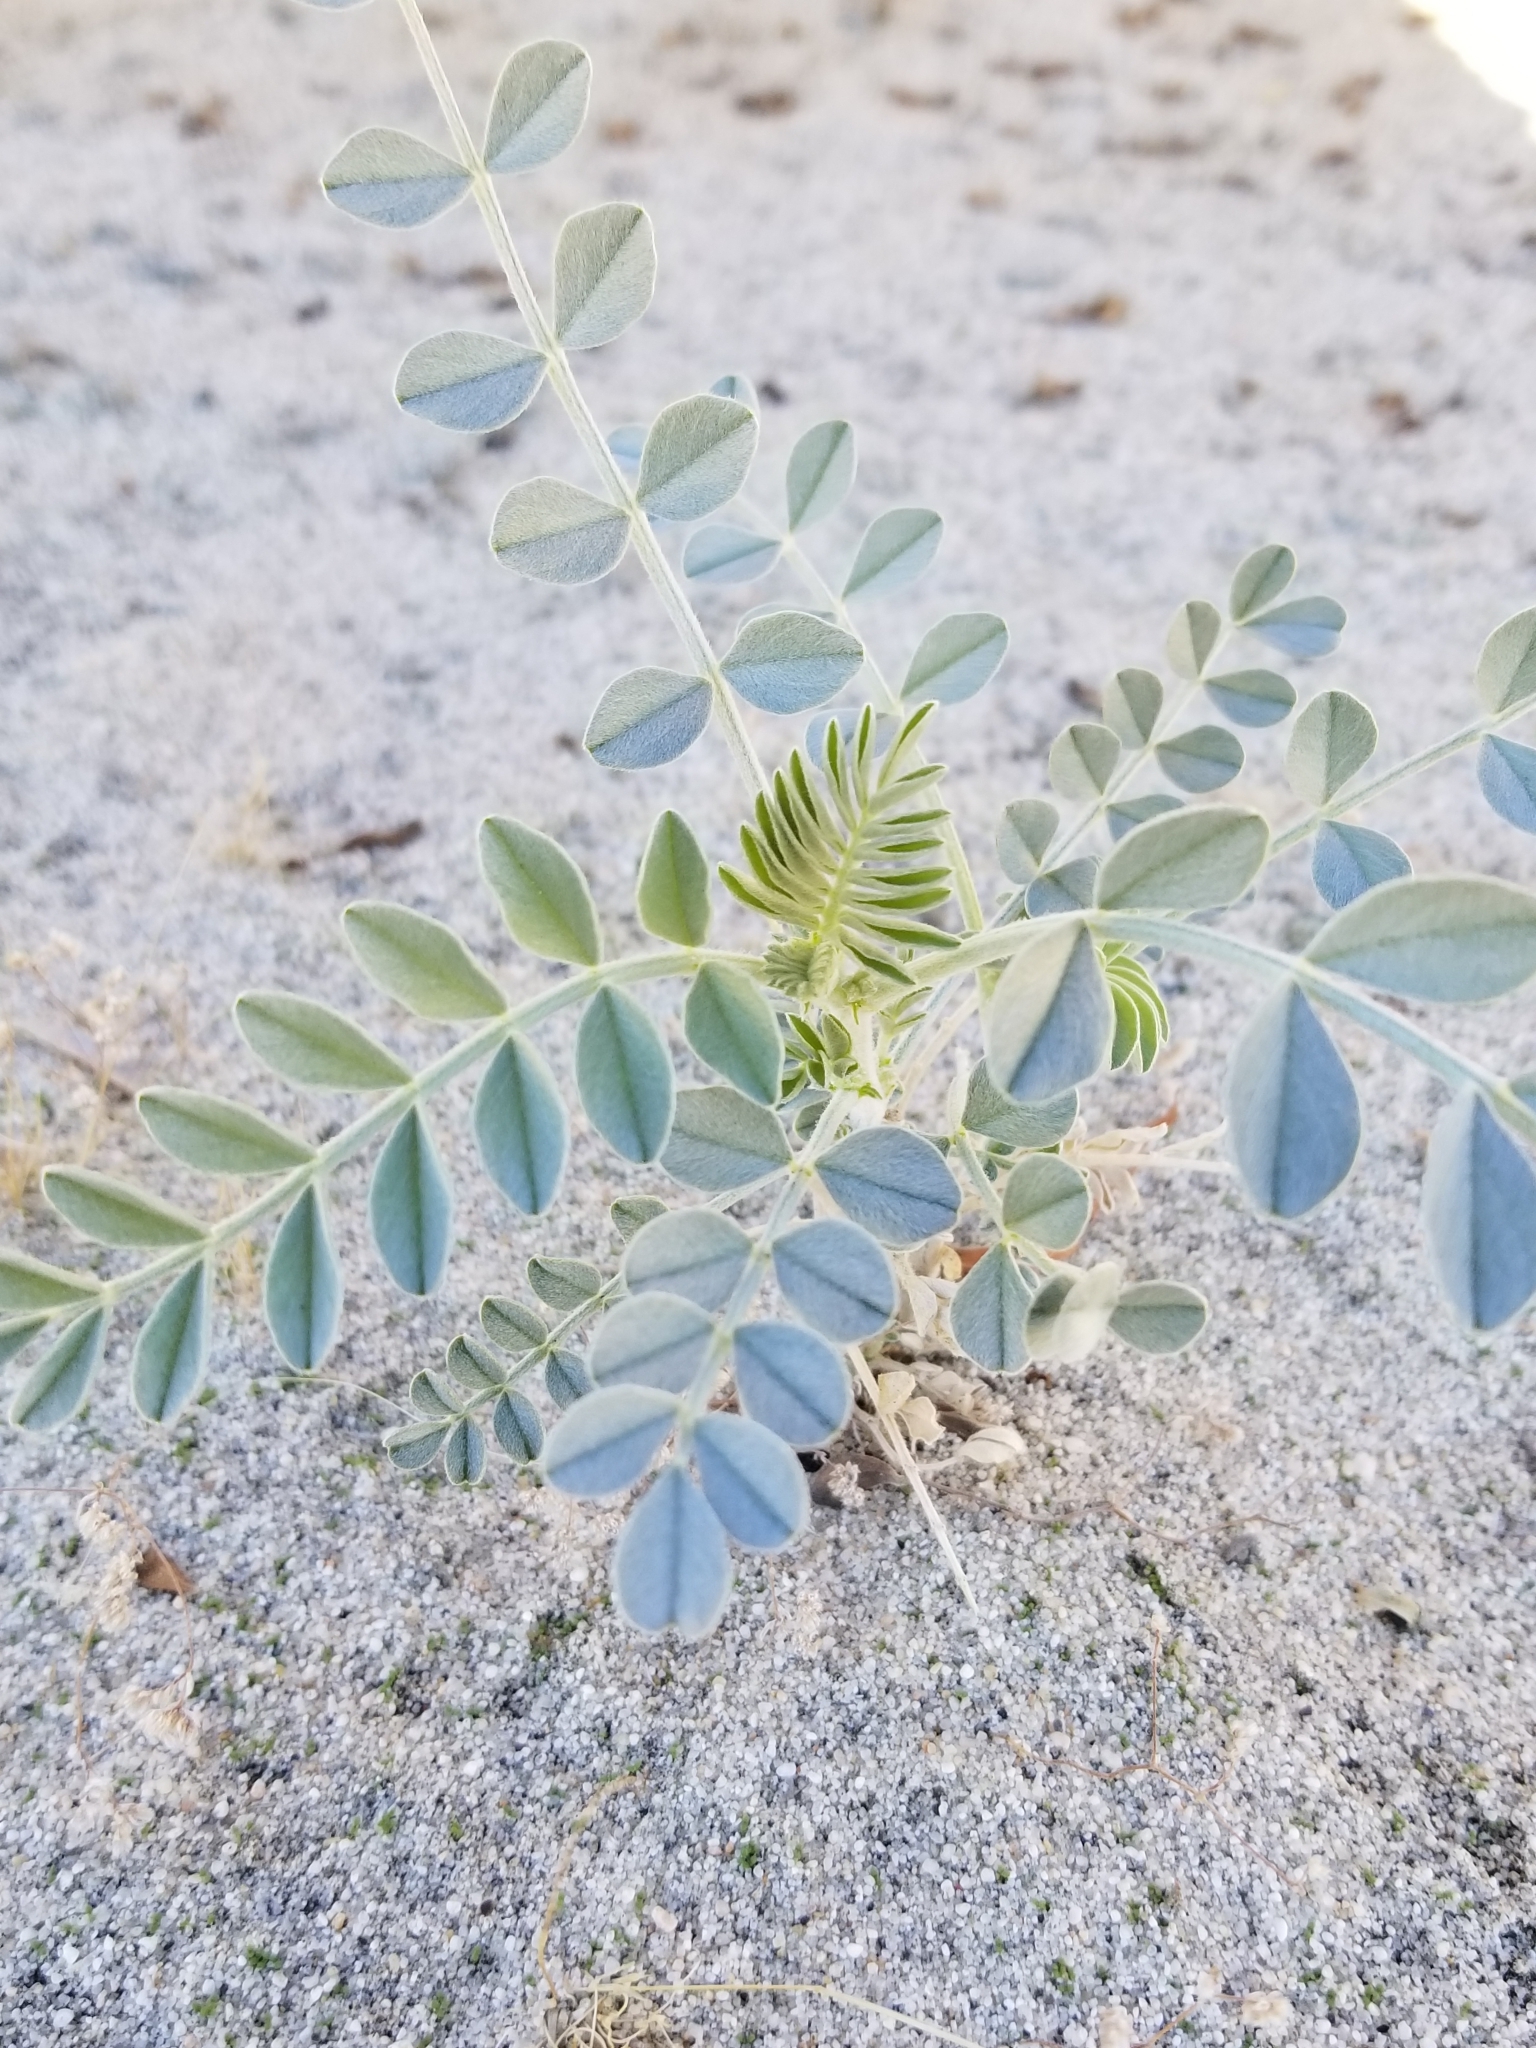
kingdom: Plantae
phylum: Tracheophyta
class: Magnoliopsida
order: Fabales
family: Fabaceae
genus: Astragalus
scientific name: Astragalus lentiginosus
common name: Freckled milkvetch
